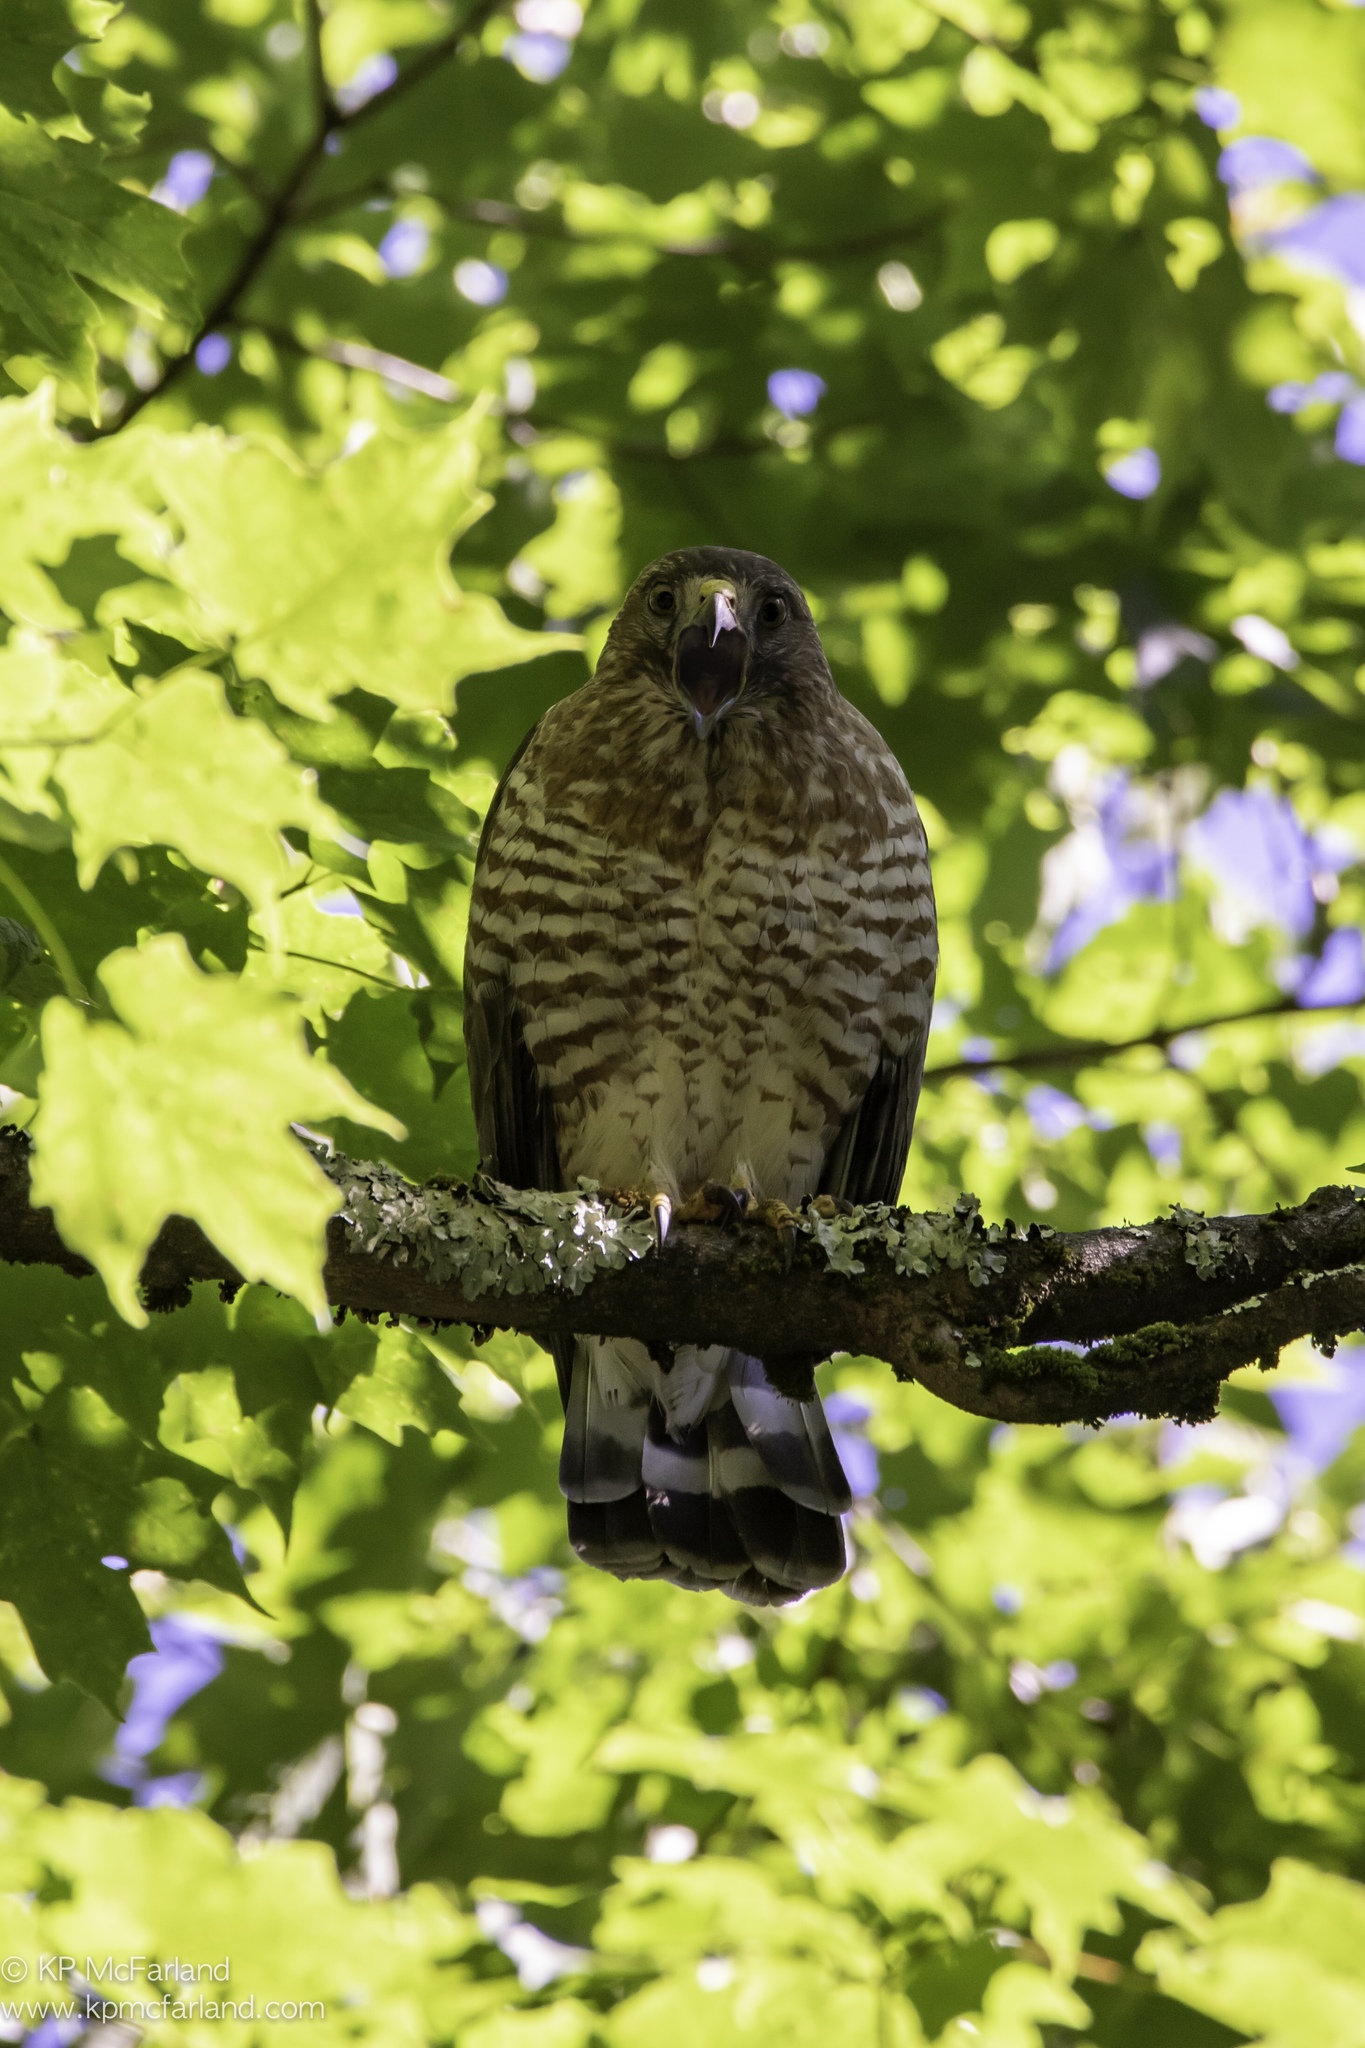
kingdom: Animalia
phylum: Chordata
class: Aves
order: Accipitriformes
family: Accipitridae
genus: Buteo
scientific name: Buteo platypterus
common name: Broad-winged hawk
